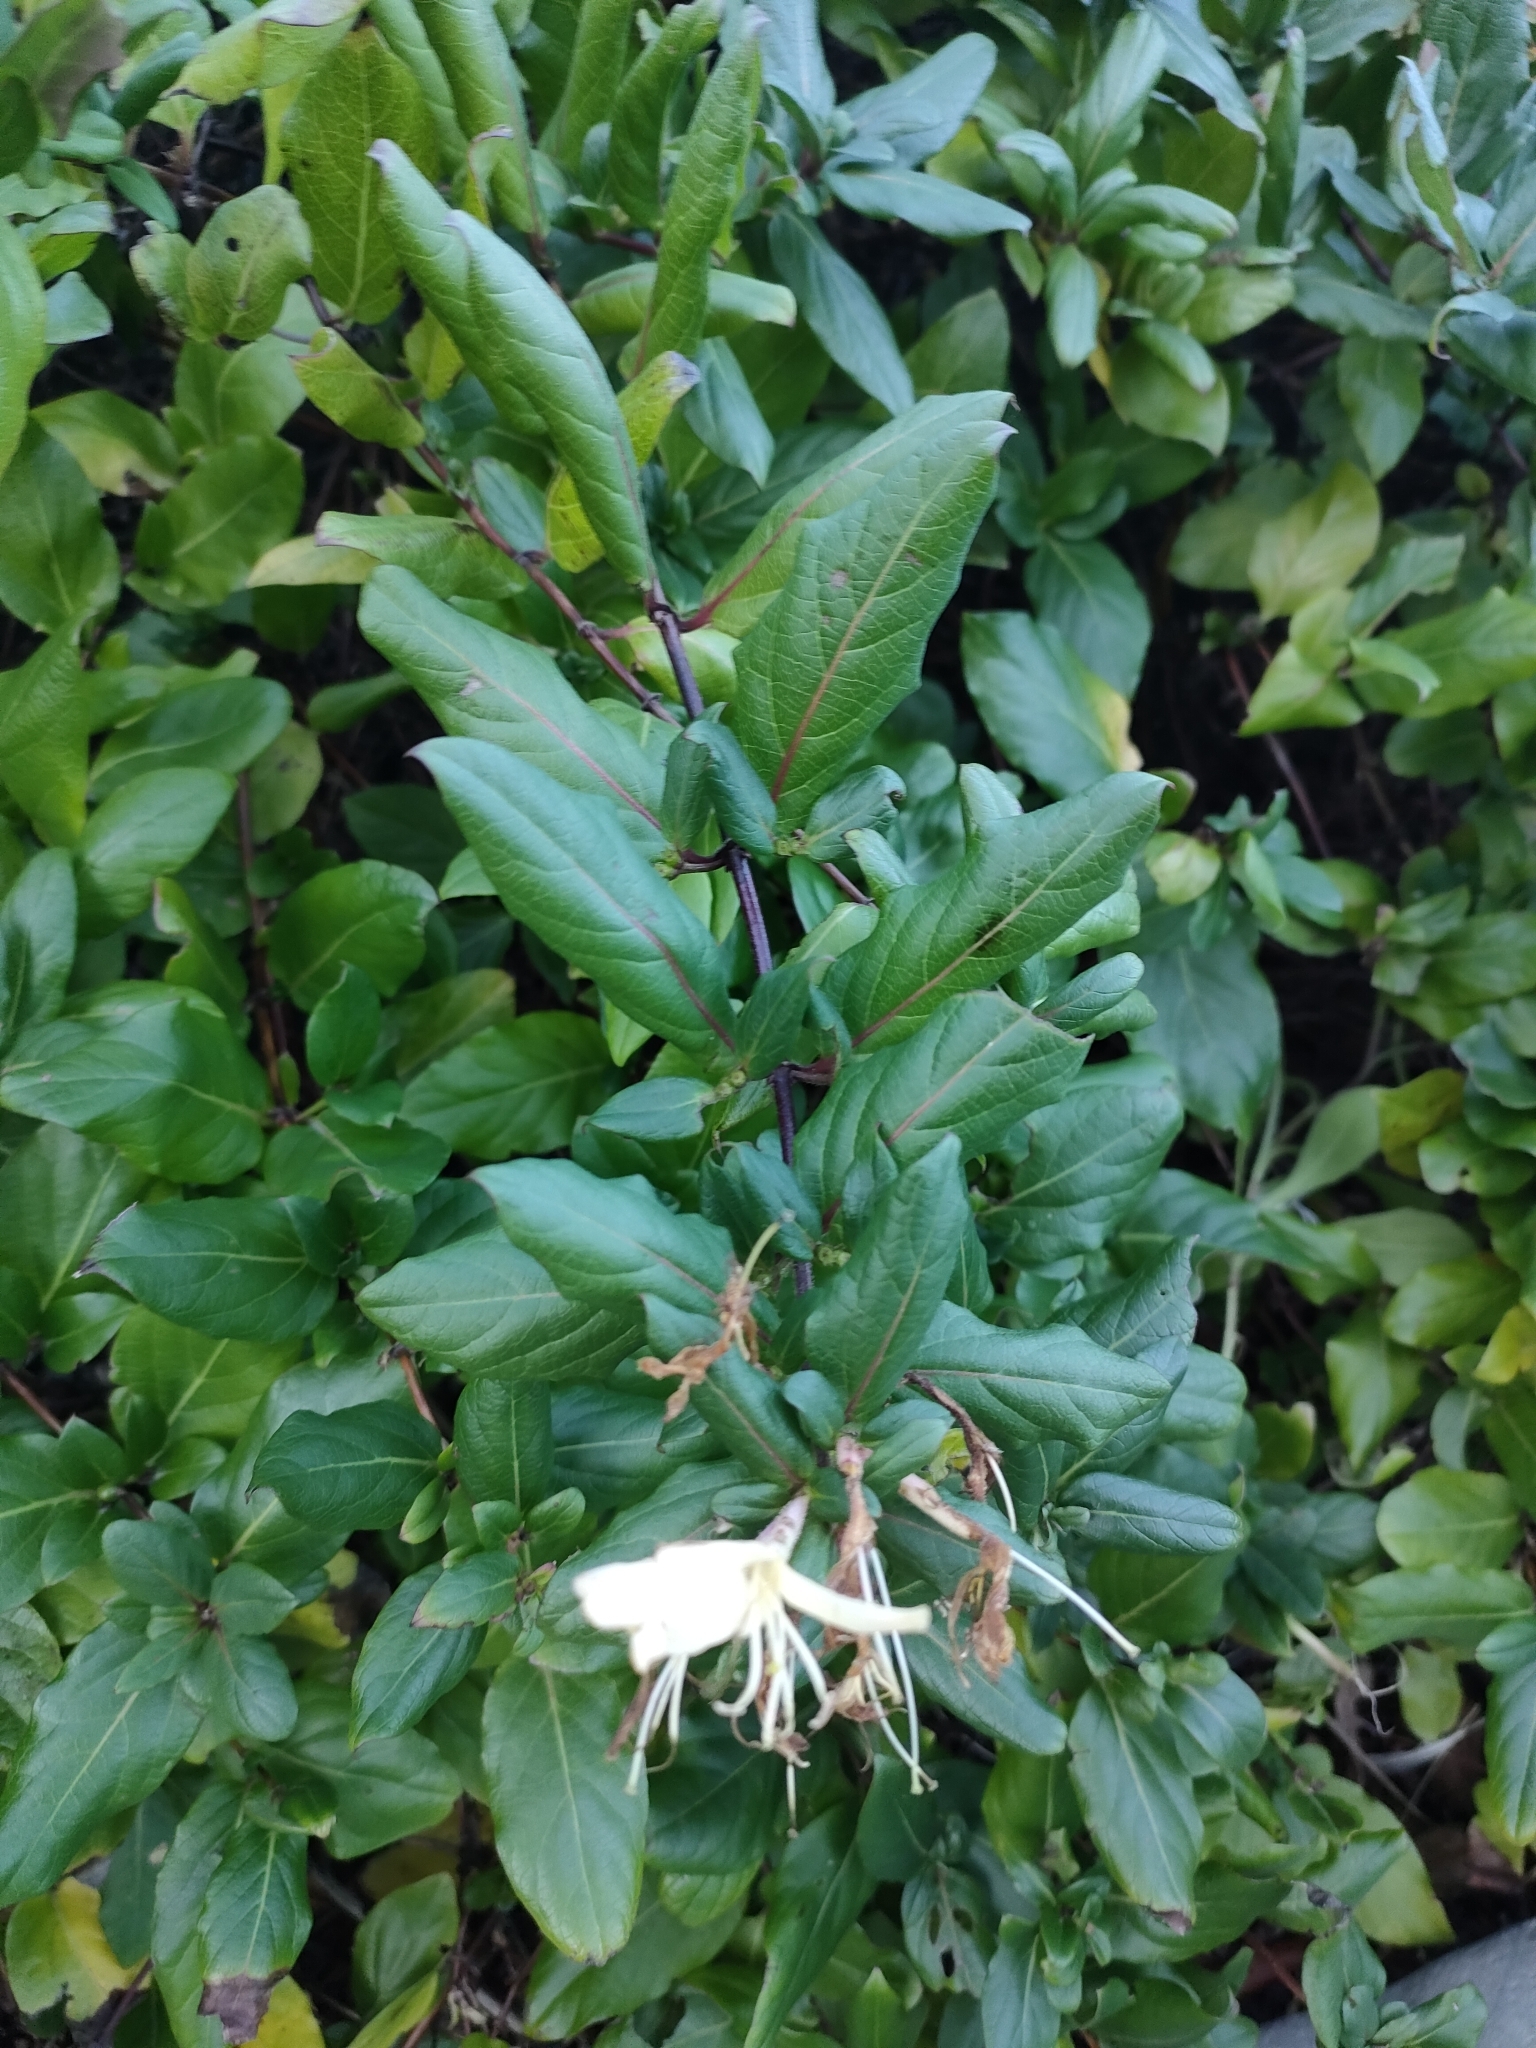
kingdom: Plantae
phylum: Tracheophyta
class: Magnoliopsida
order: Dipsacales
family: Caprifoliaceae
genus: Lonicera
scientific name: Lonicera japonica
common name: Japanese honeysuckle
